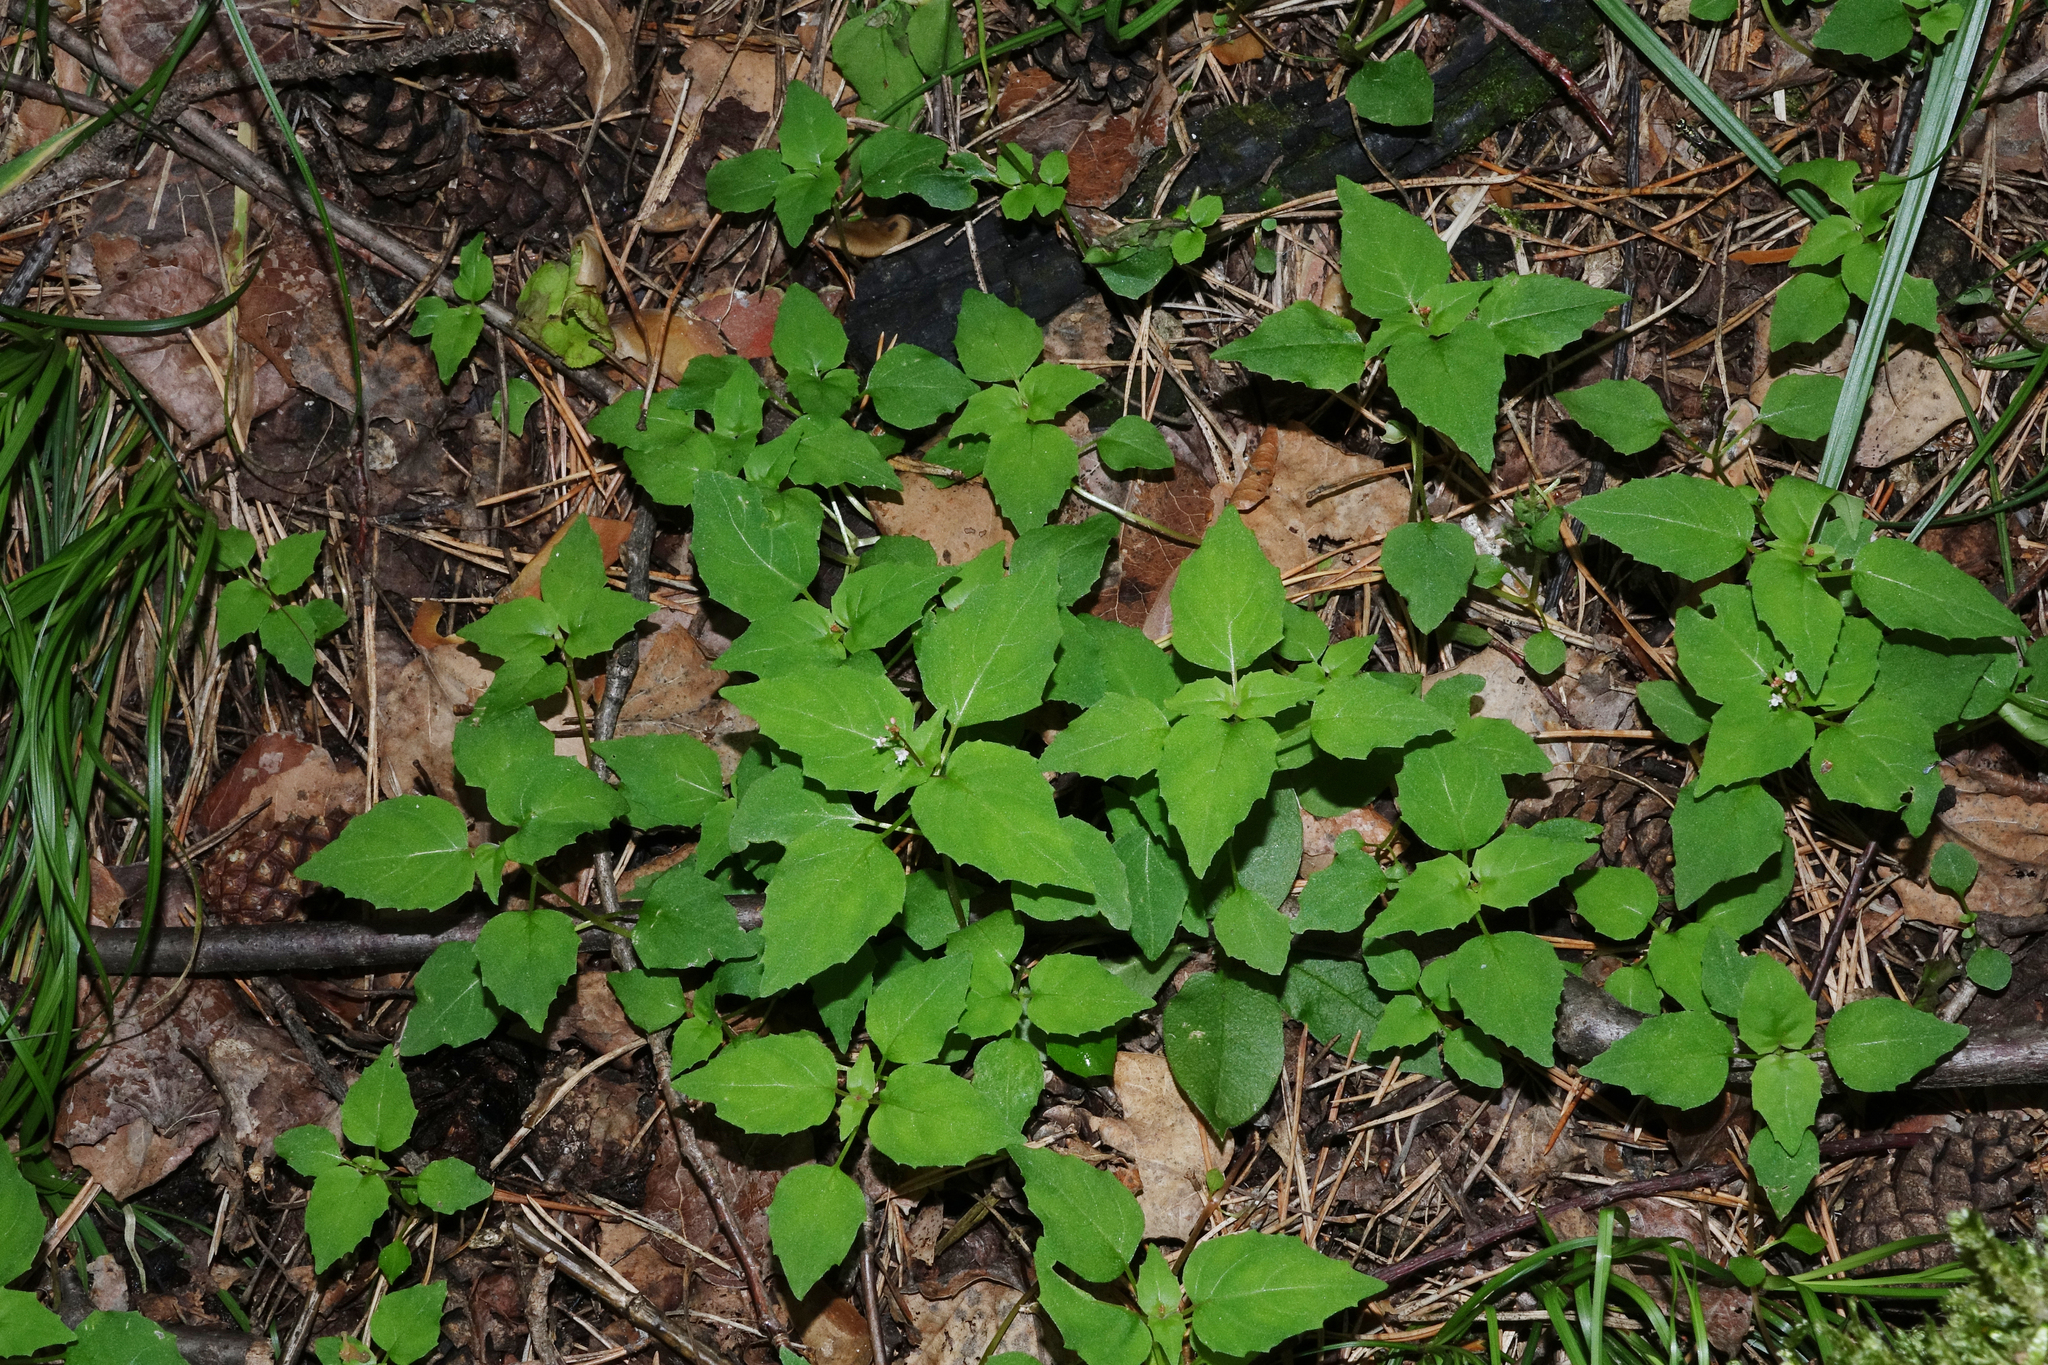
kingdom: Plantae
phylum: Tracheophyta
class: Magnoliopsida
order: Myrtales
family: Onagraceae
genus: Circaea
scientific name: Circaea alpina
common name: Alpine enchanter's-nightshade
